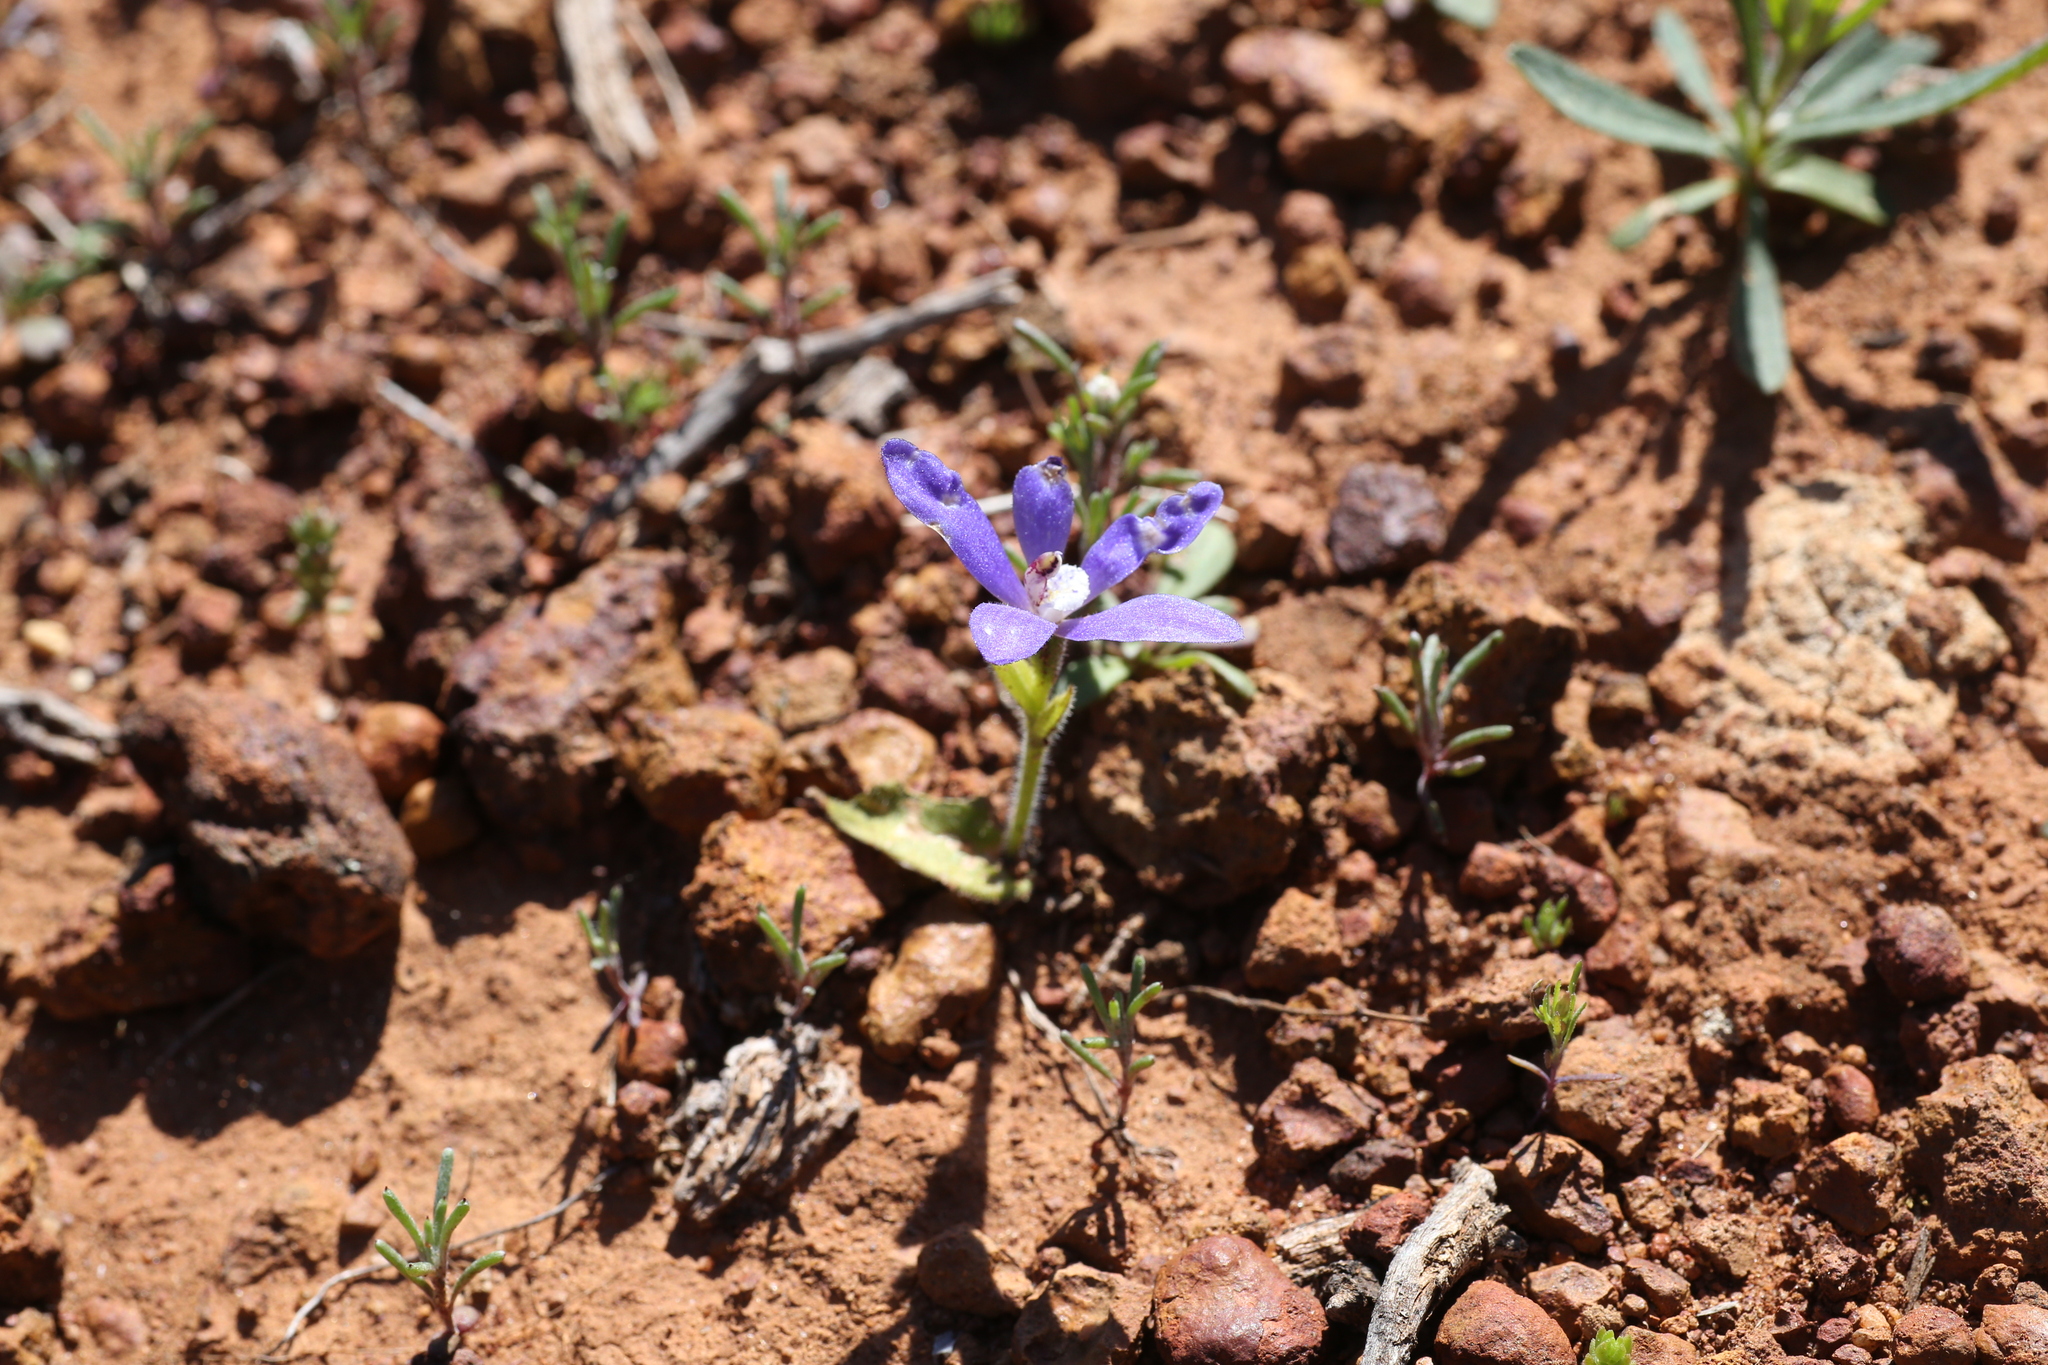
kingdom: Plantae
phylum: Tracheophyta
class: Liliopsida
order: Asparagales
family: Orchidaceae
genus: Caladenia
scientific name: Caladenia gemmata
